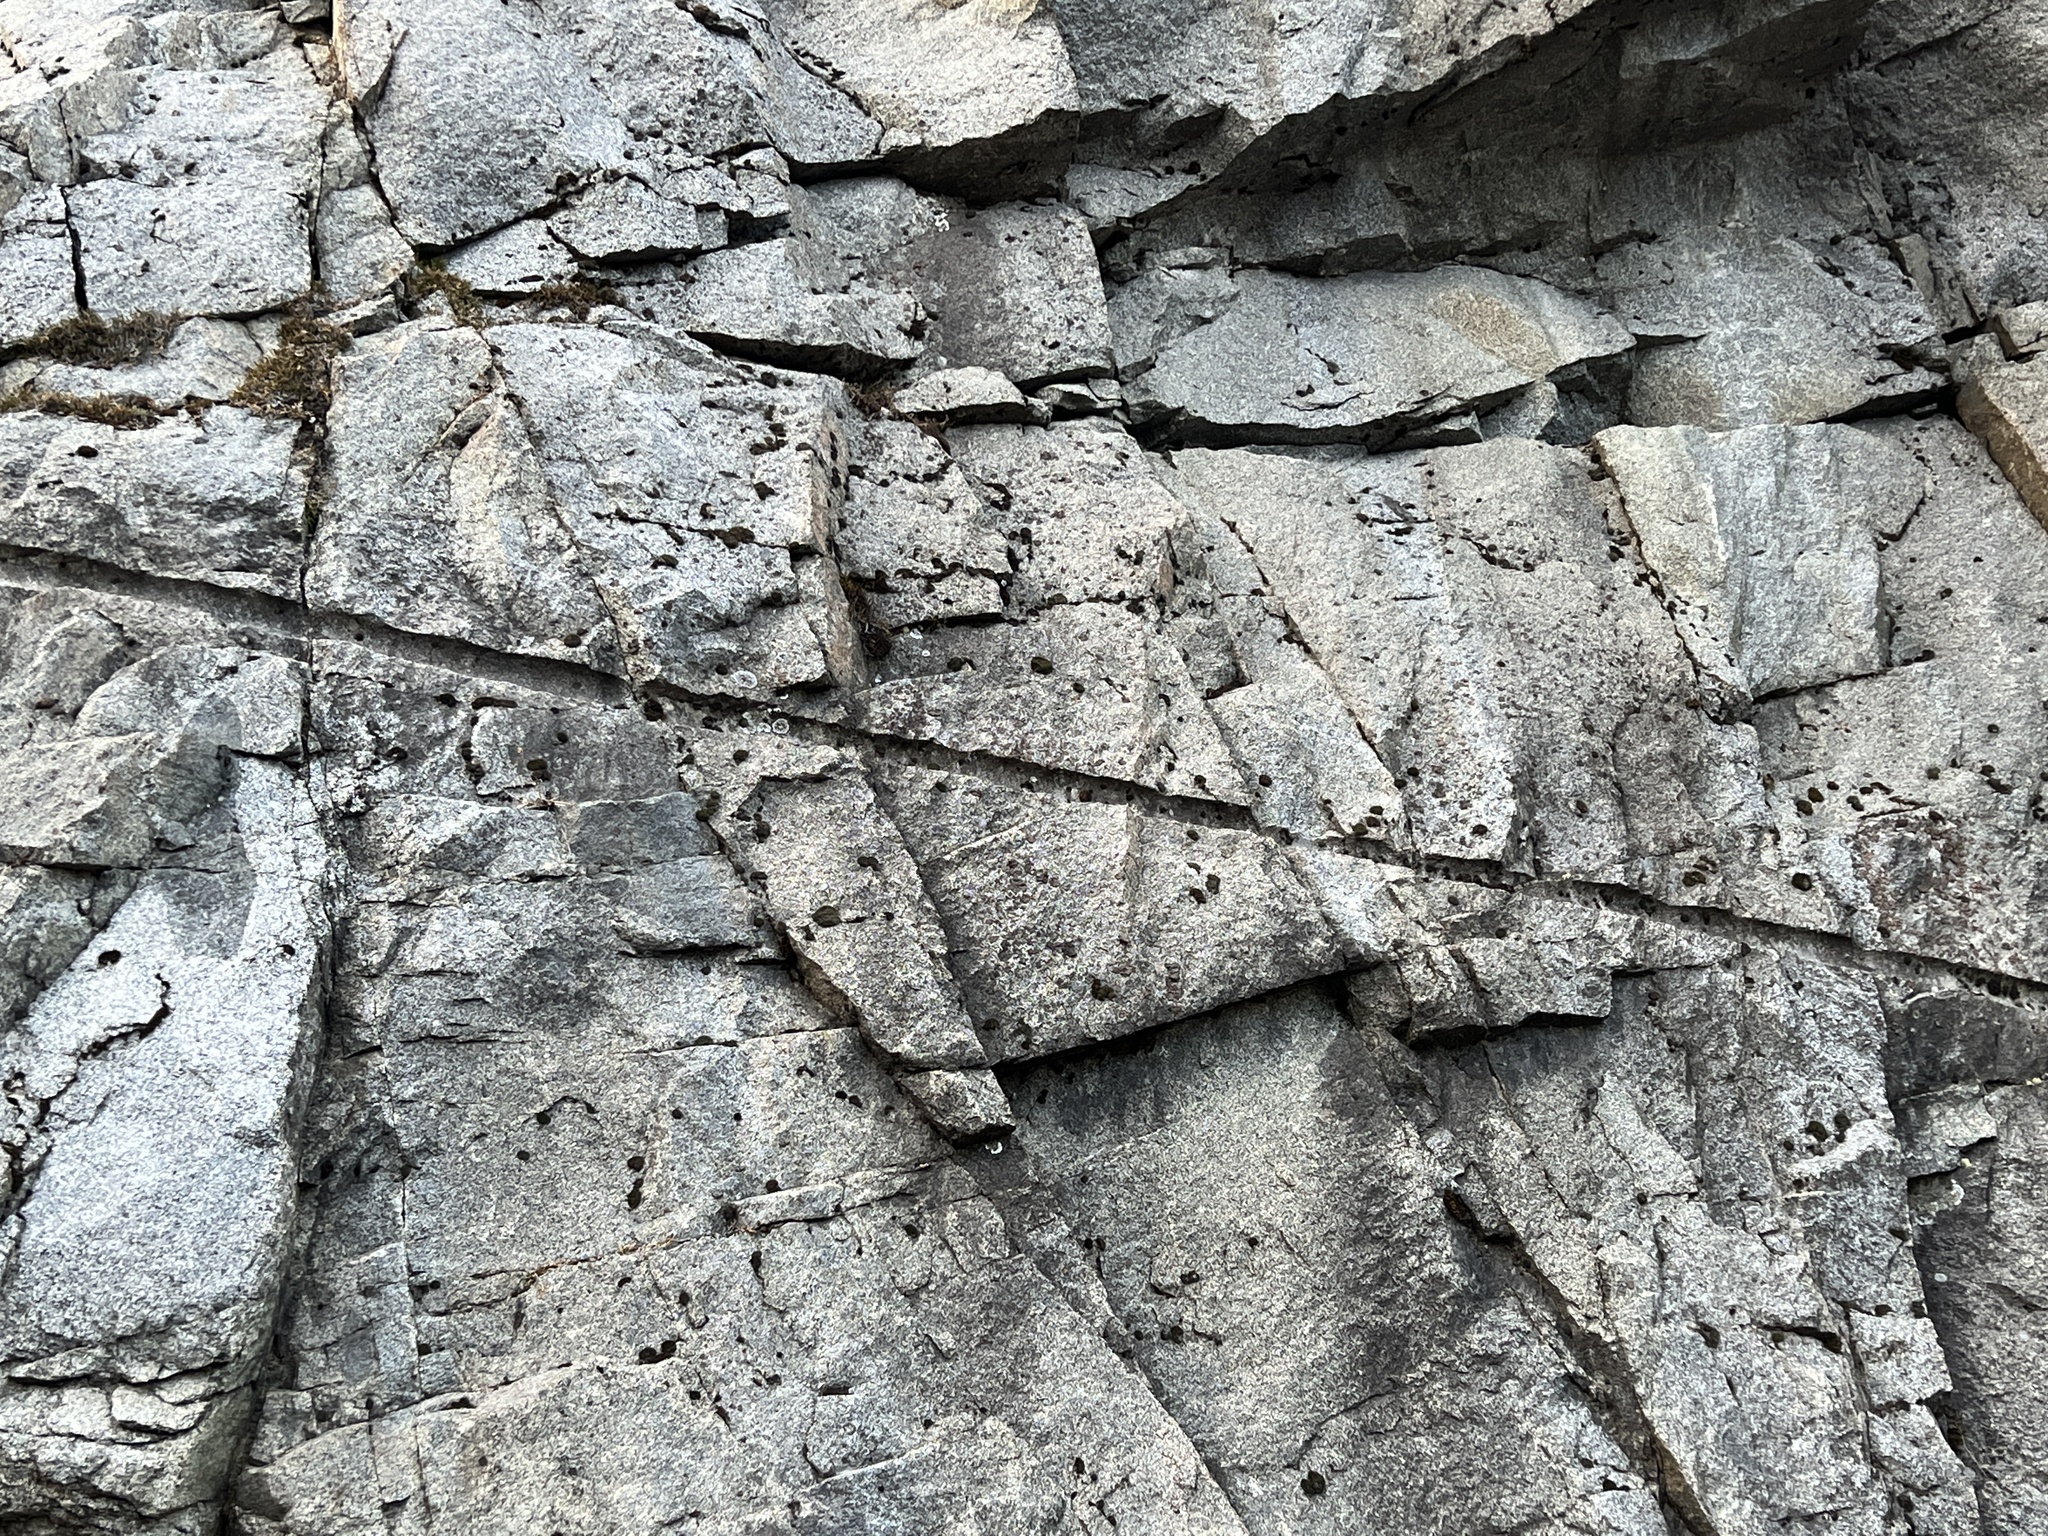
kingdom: Plantae
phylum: Tracheophyta
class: Polypodiopsida
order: Polypodiales
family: Pteridaceae
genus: Myriopteris
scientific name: Myriopteris gracillima
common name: Lace fern
